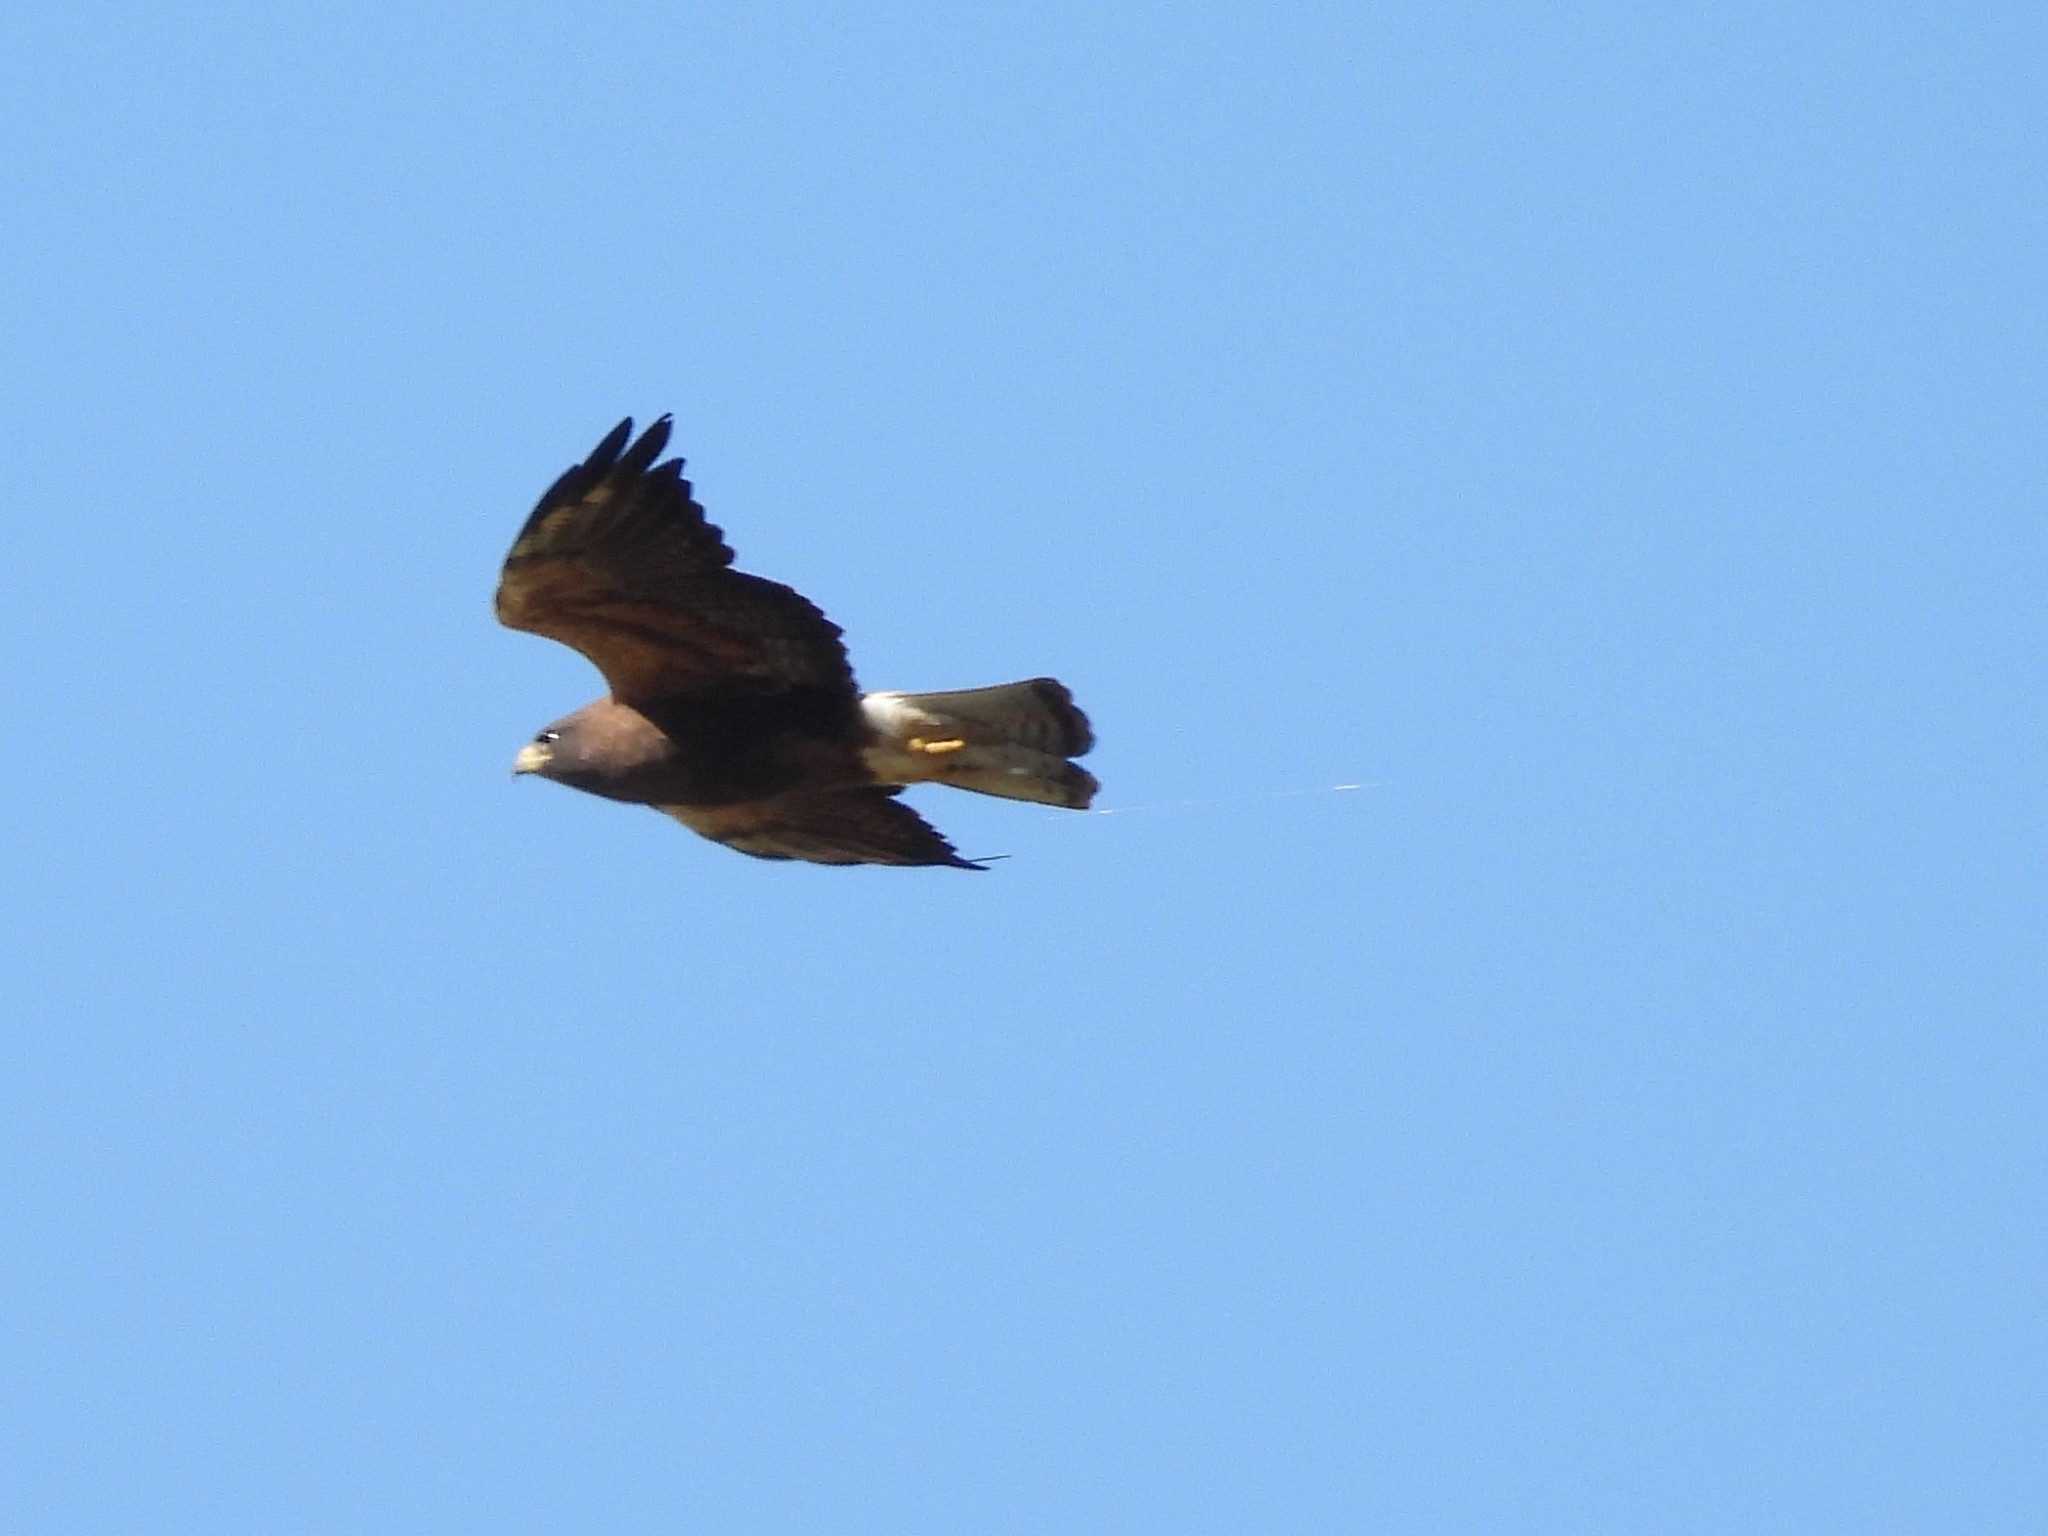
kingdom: Animalia
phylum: Chordata
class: Aves
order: Accipitriformes
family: Accipitridae
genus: Buteo
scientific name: Buteo swainsoni
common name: Swainson's hawk
